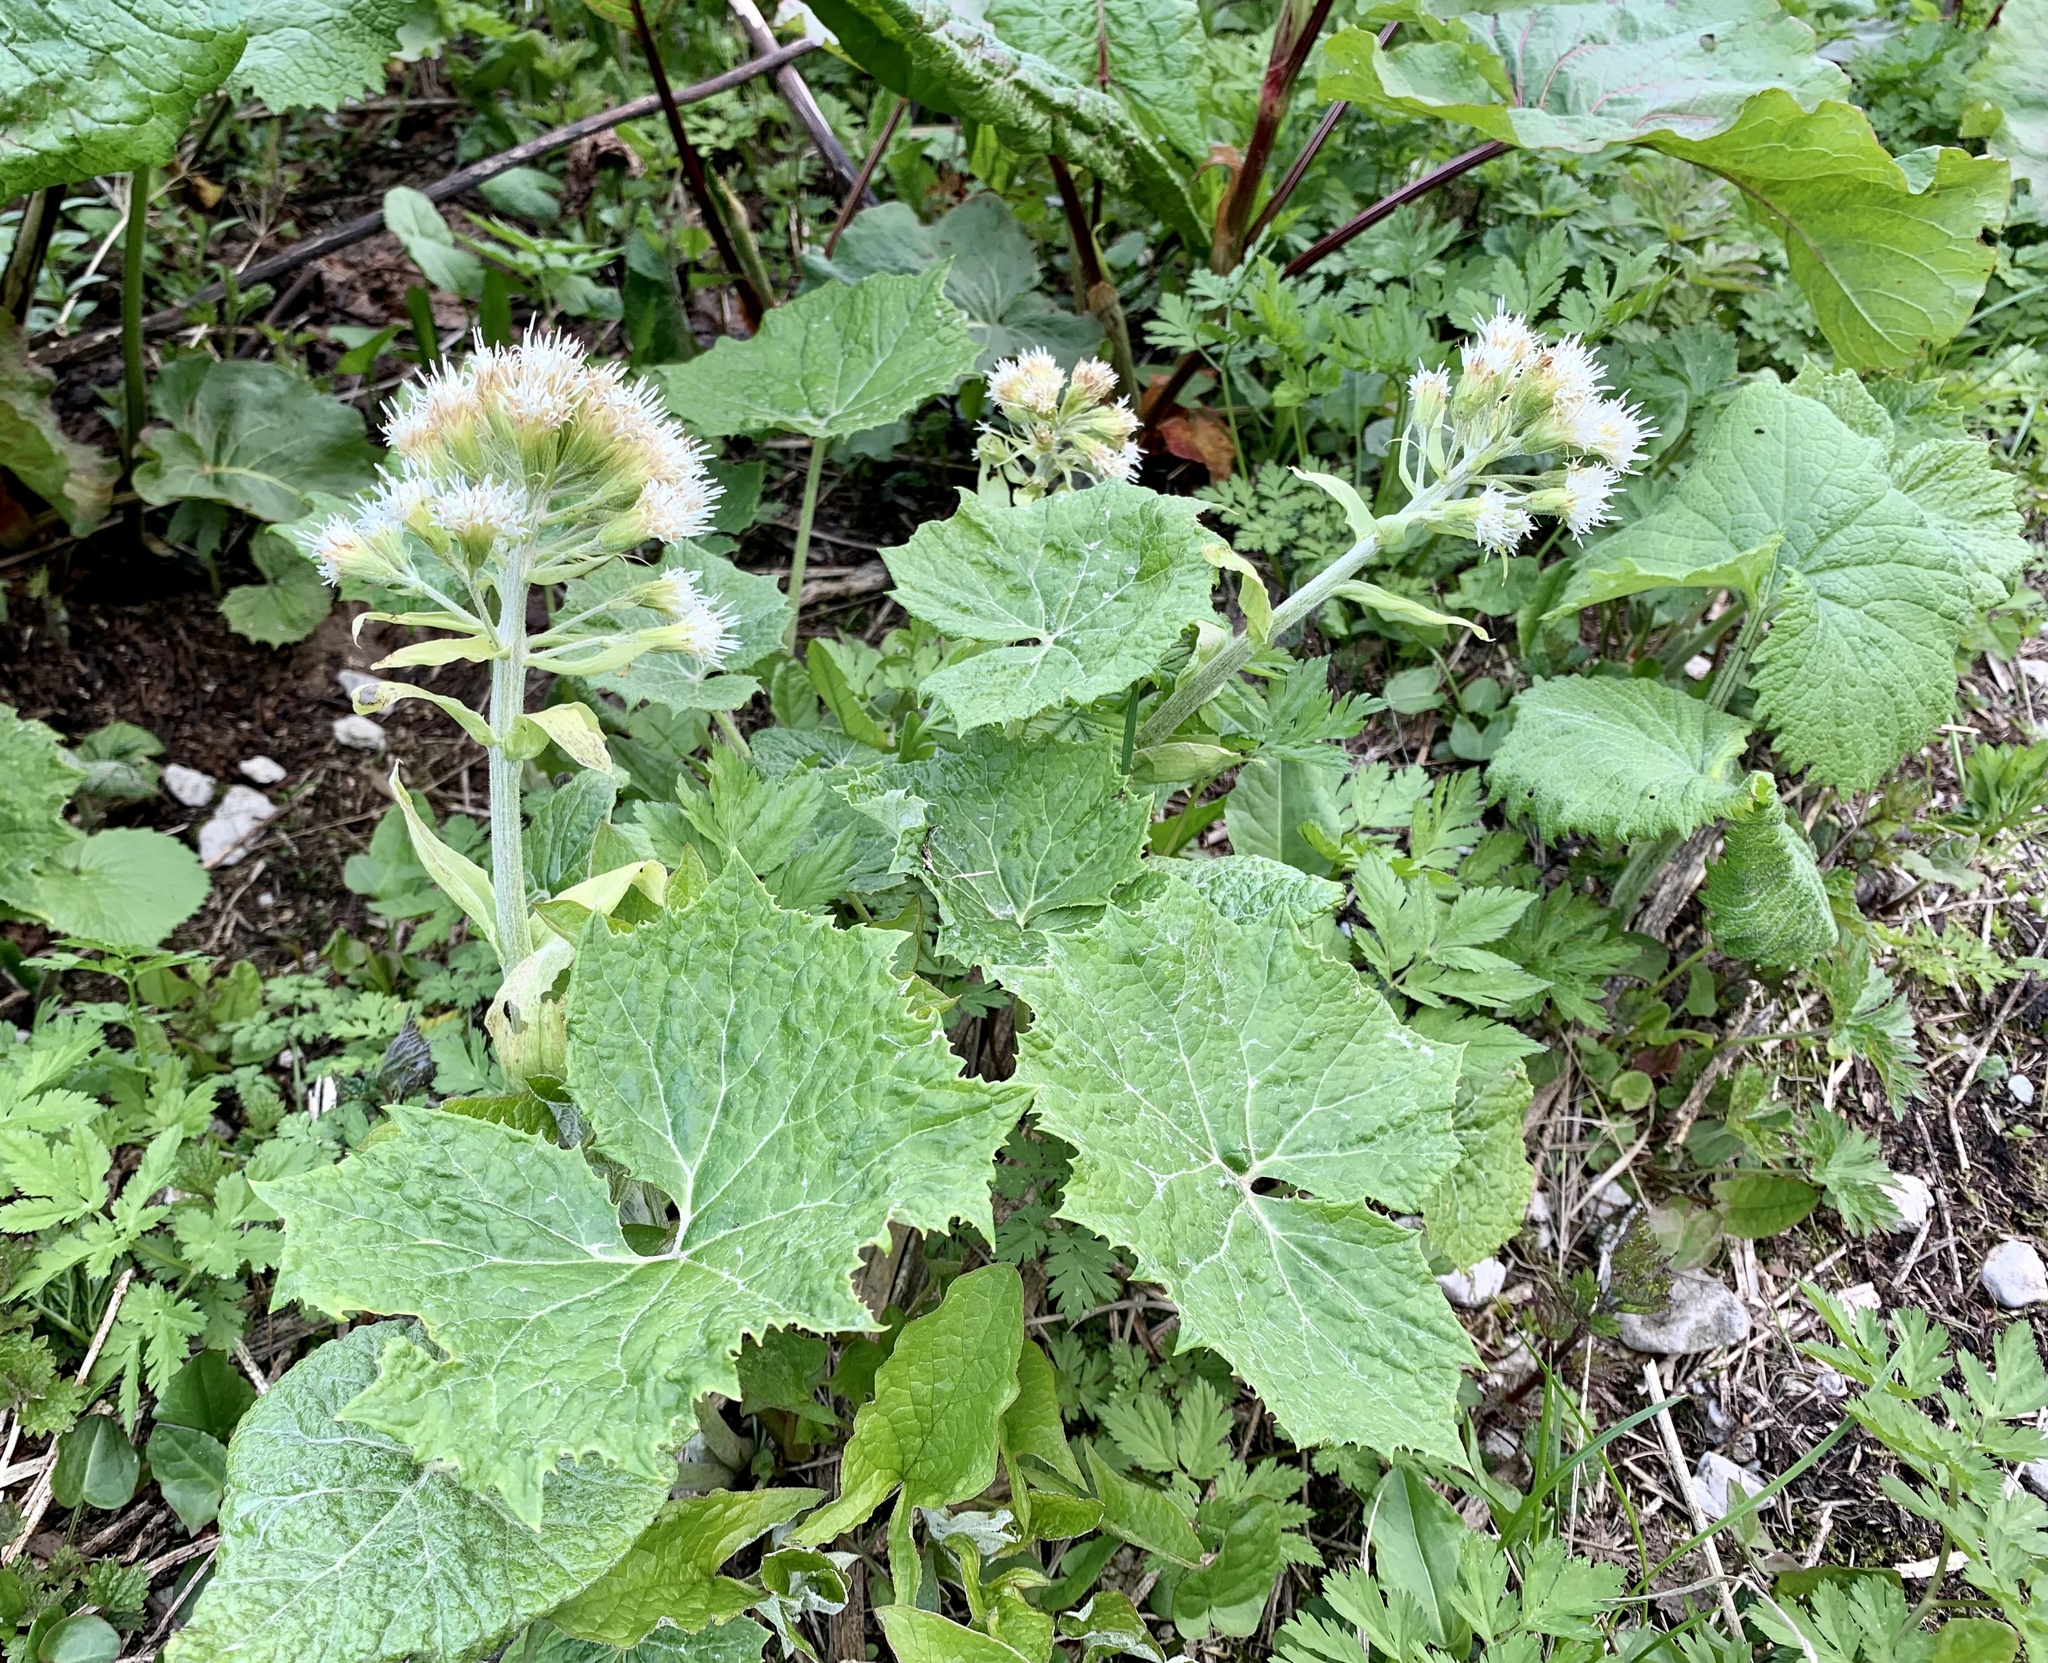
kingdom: Plantae
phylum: Tracheophyta
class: Magnoliopsida
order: Asterales
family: Asteraceae
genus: Petasites
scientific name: Petasites albus
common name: White butterbur
